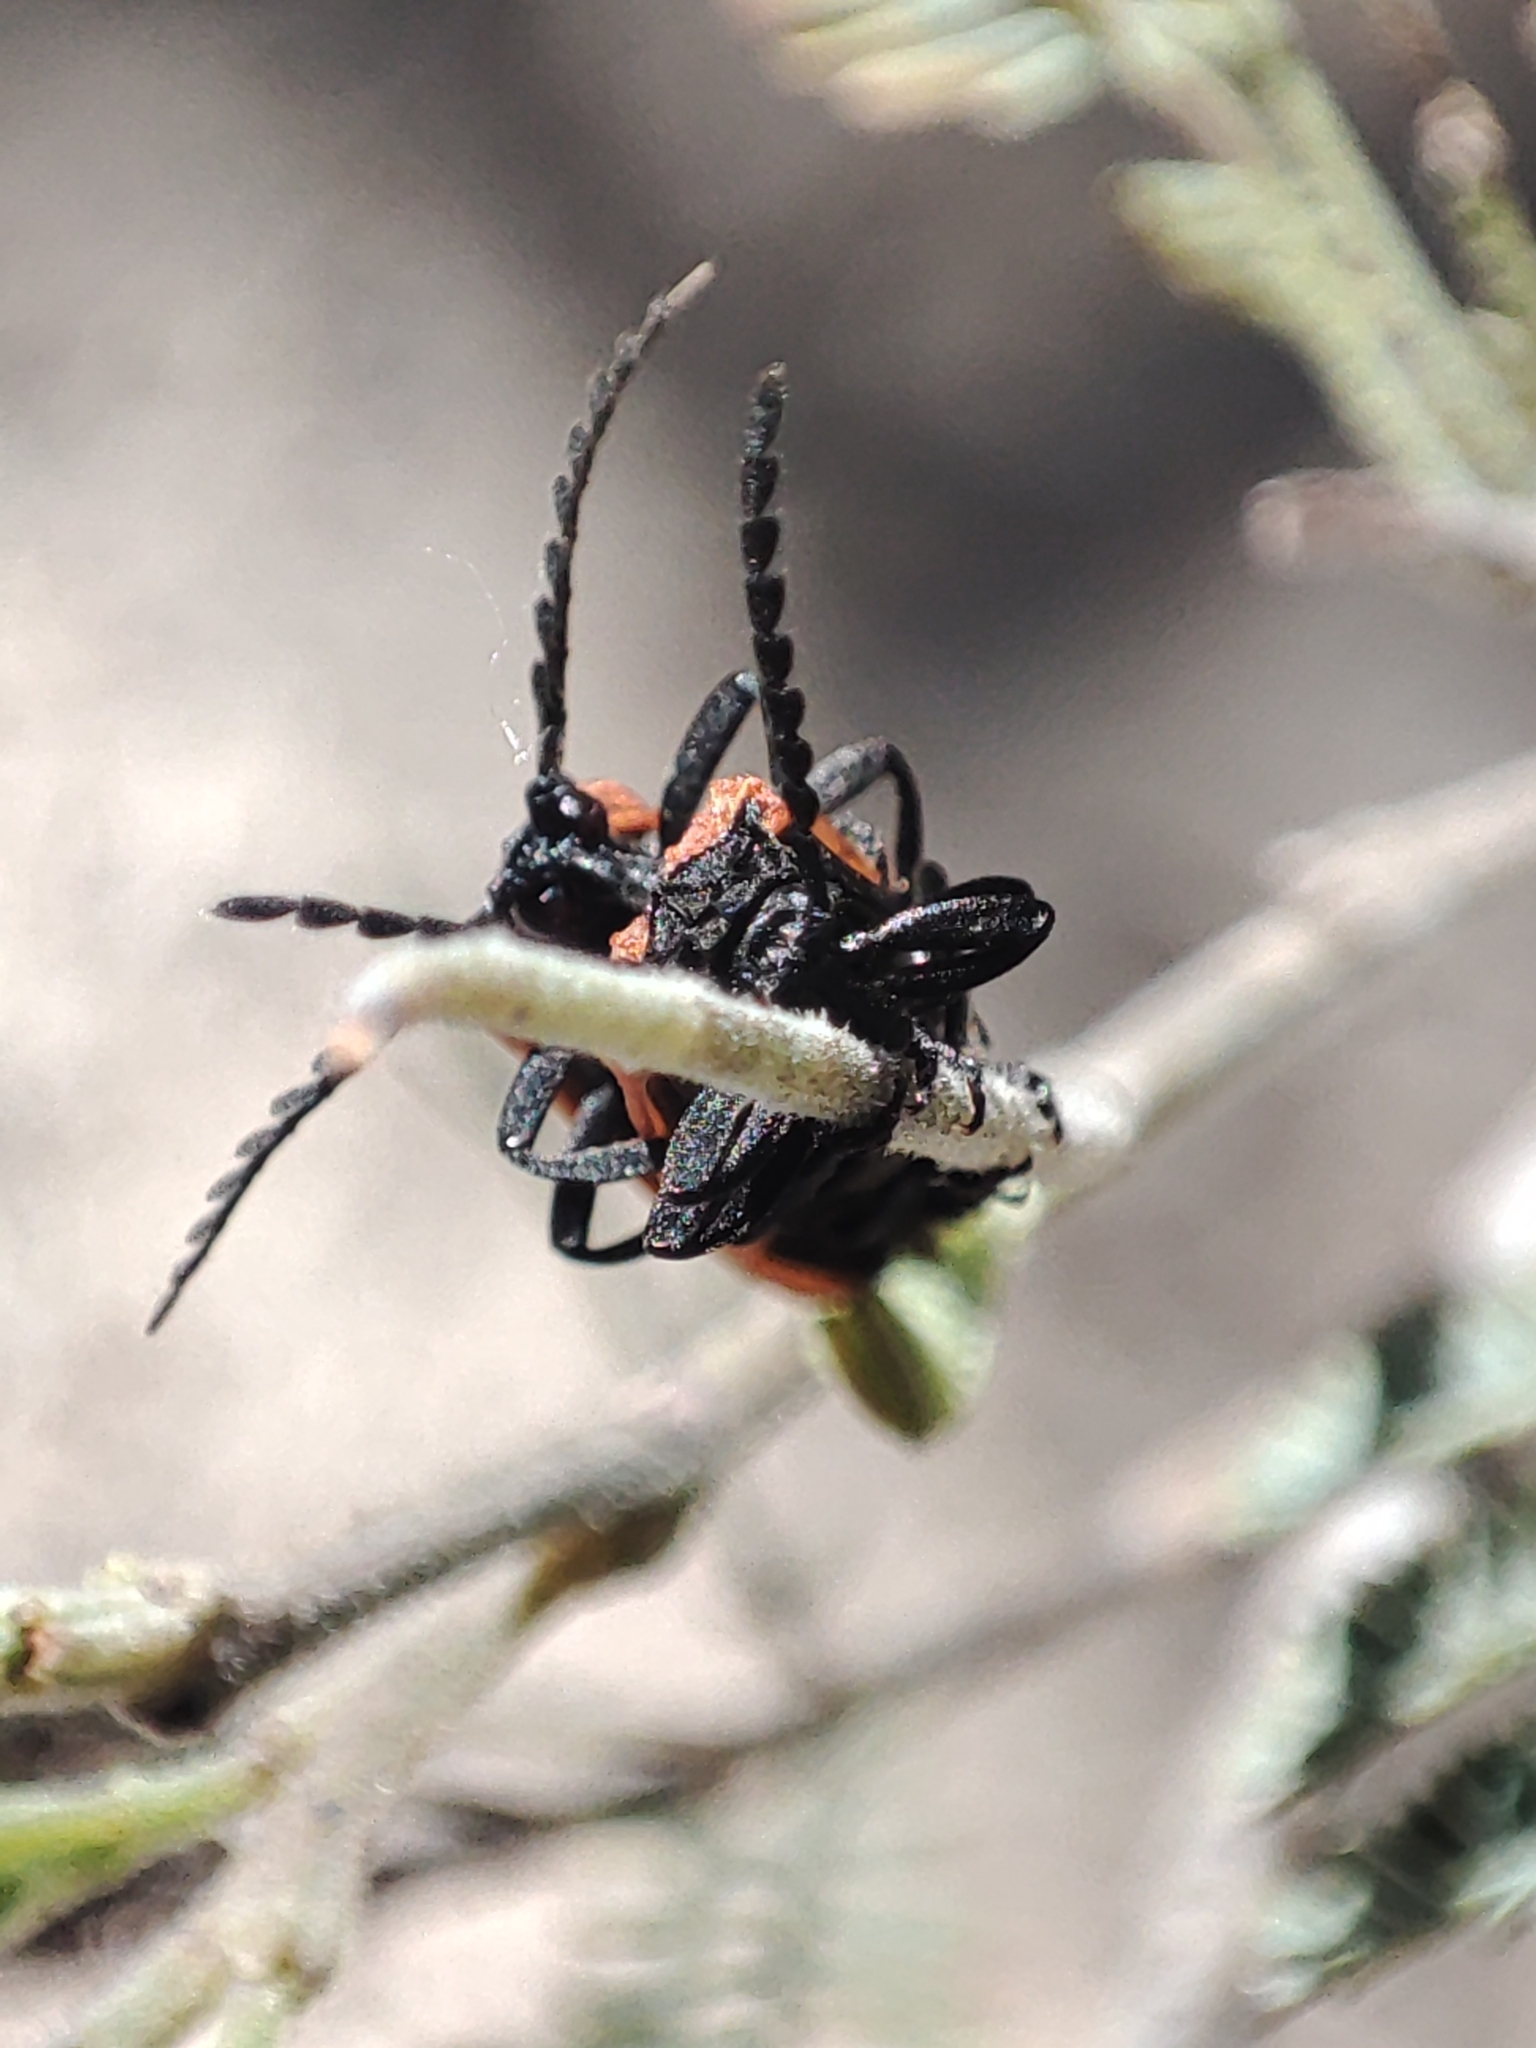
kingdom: Animalia
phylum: Arthropoda
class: Insecta
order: Coleoptera
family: Lycidae
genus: Porrostoma
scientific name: Porrostoma rhipidium
